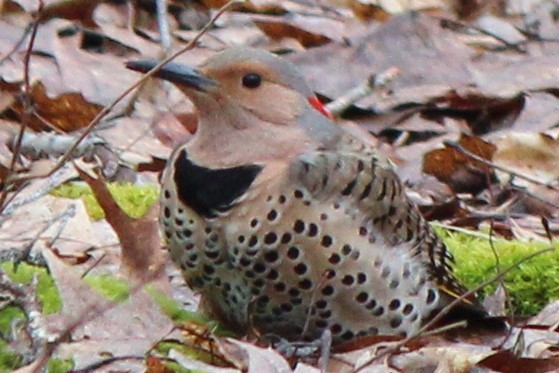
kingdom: Animalia
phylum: Chordata
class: Aves
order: Piciformes
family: Picidae
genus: Colaptes
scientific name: Colaptes auratus
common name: Northern flicker
